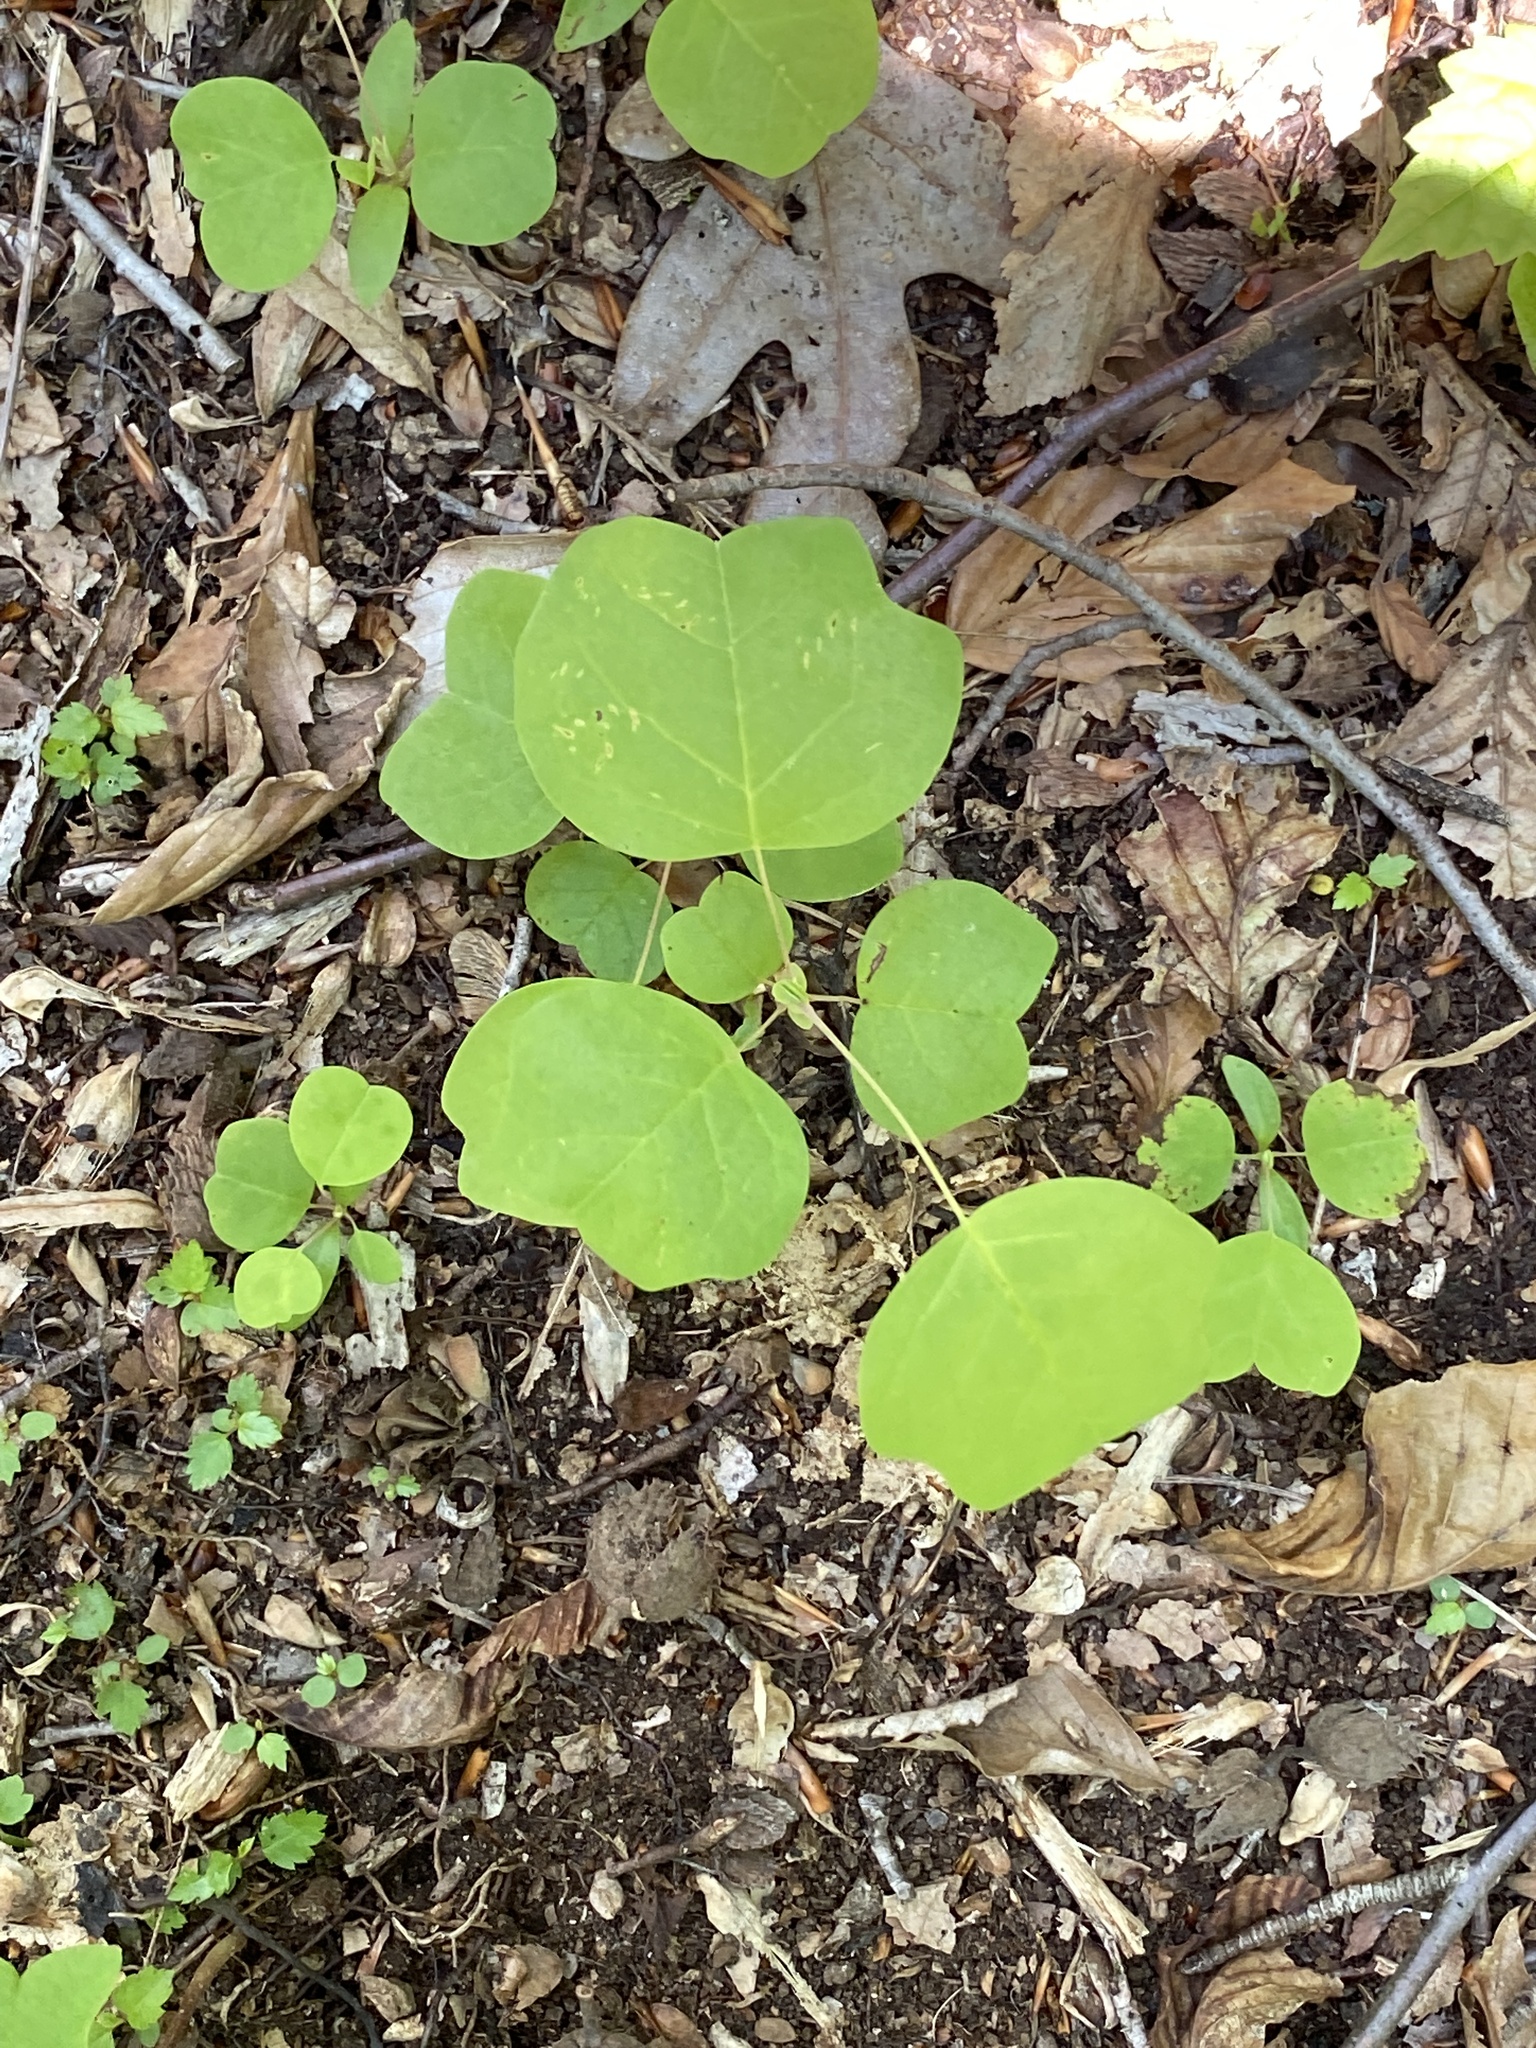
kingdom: Plantae
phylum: Tracheophyta
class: Magnoliopsida
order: Magnoliales
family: Magnoliaceae
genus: Liriodendron
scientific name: Liriodendron tulipifera
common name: Tulip tree
